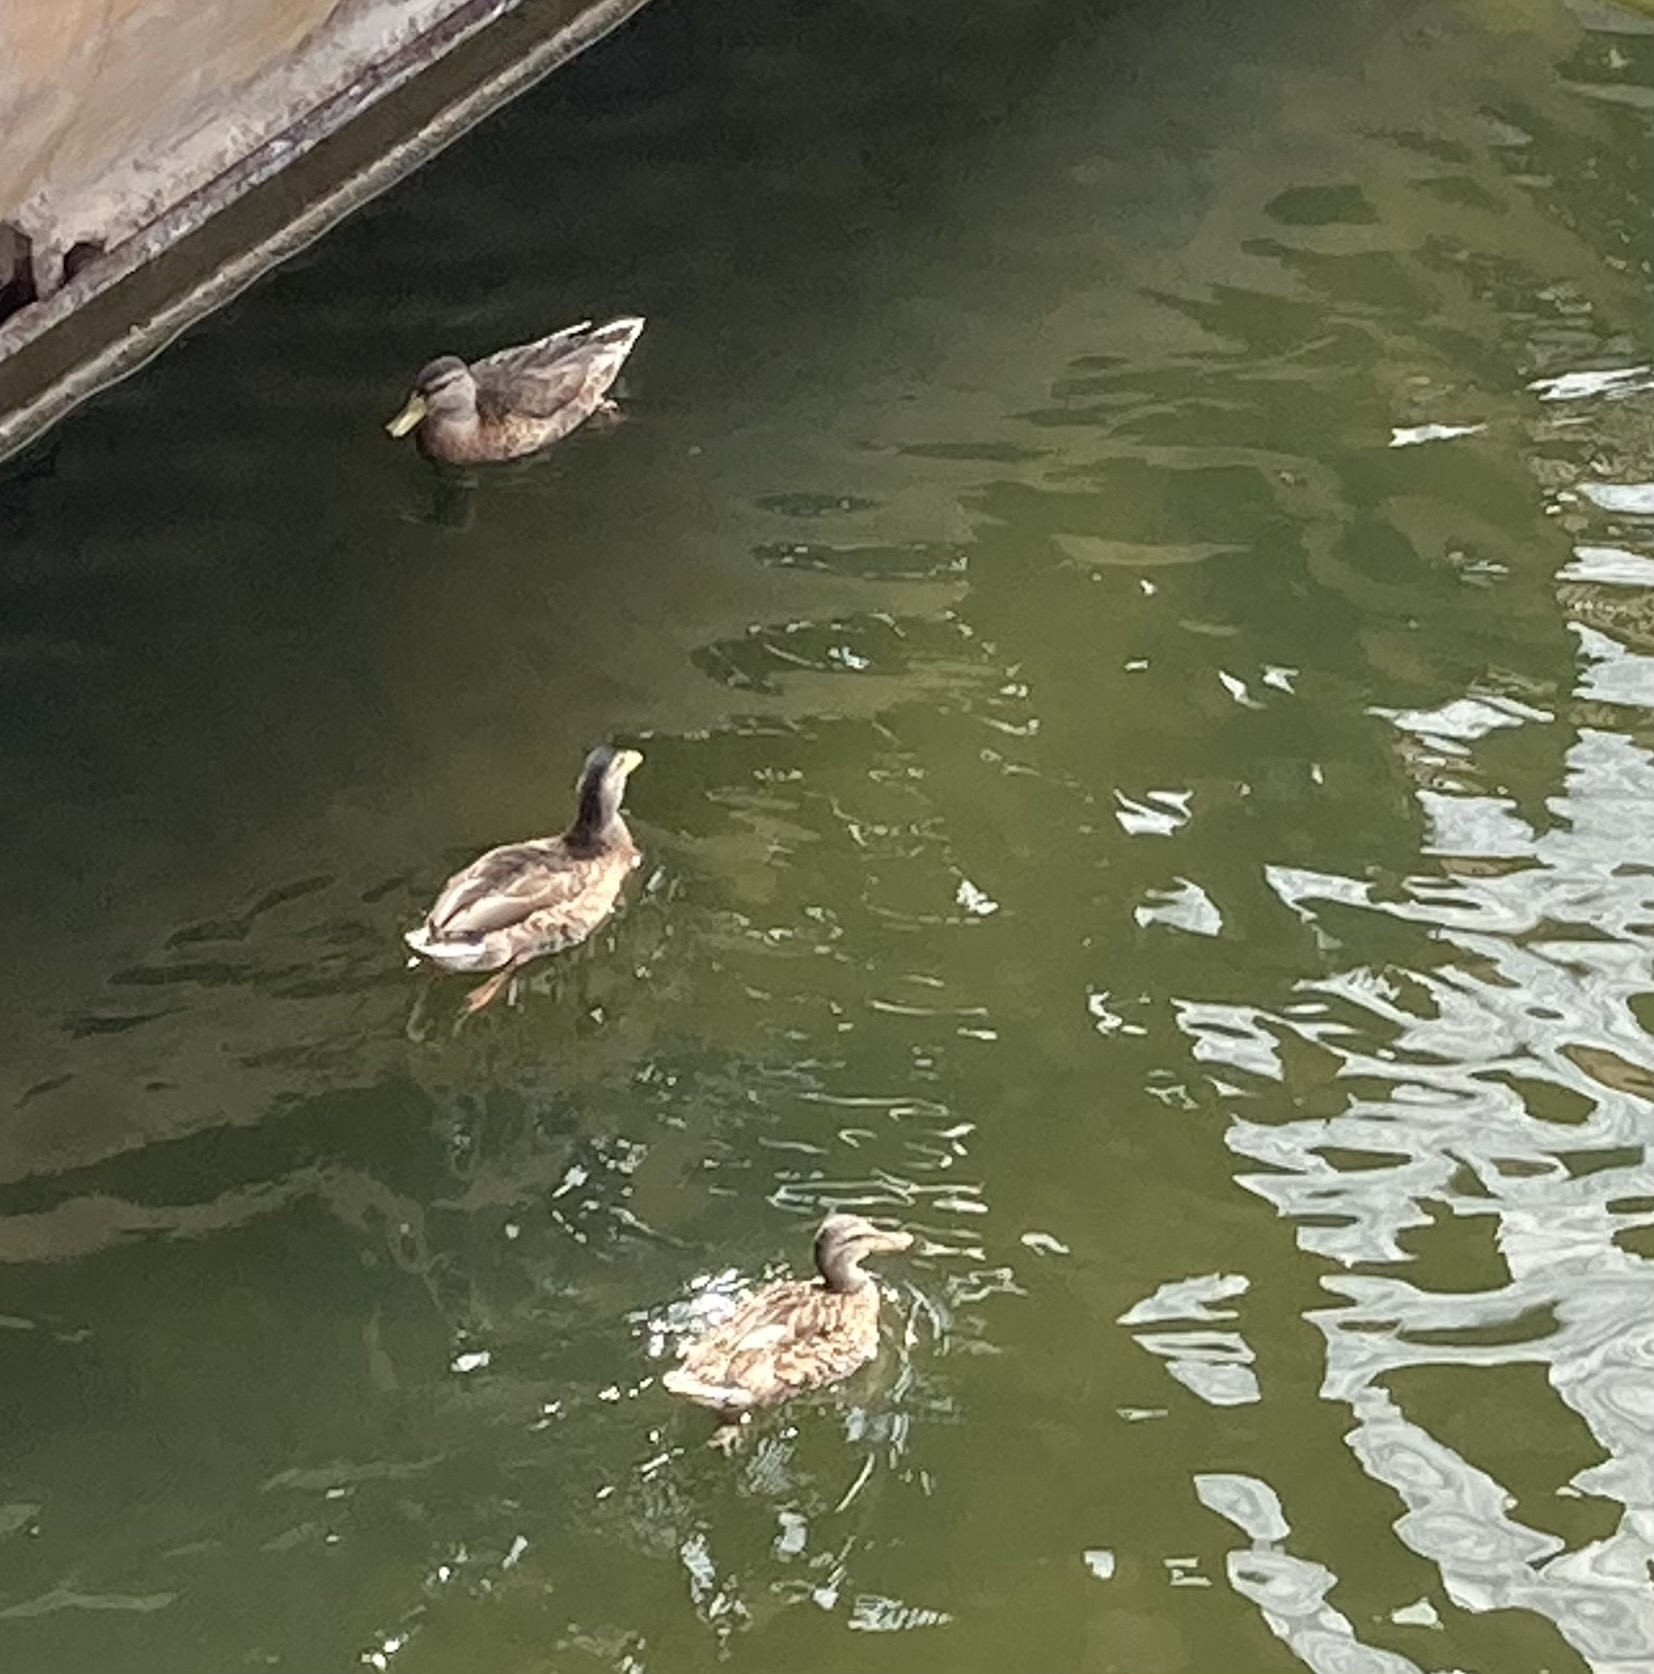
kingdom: Animalia
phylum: Chordata
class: Aves
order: Anseriformes
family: Anatidae
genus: Anas
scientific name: Anas platyrhynchos
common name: Mallard
